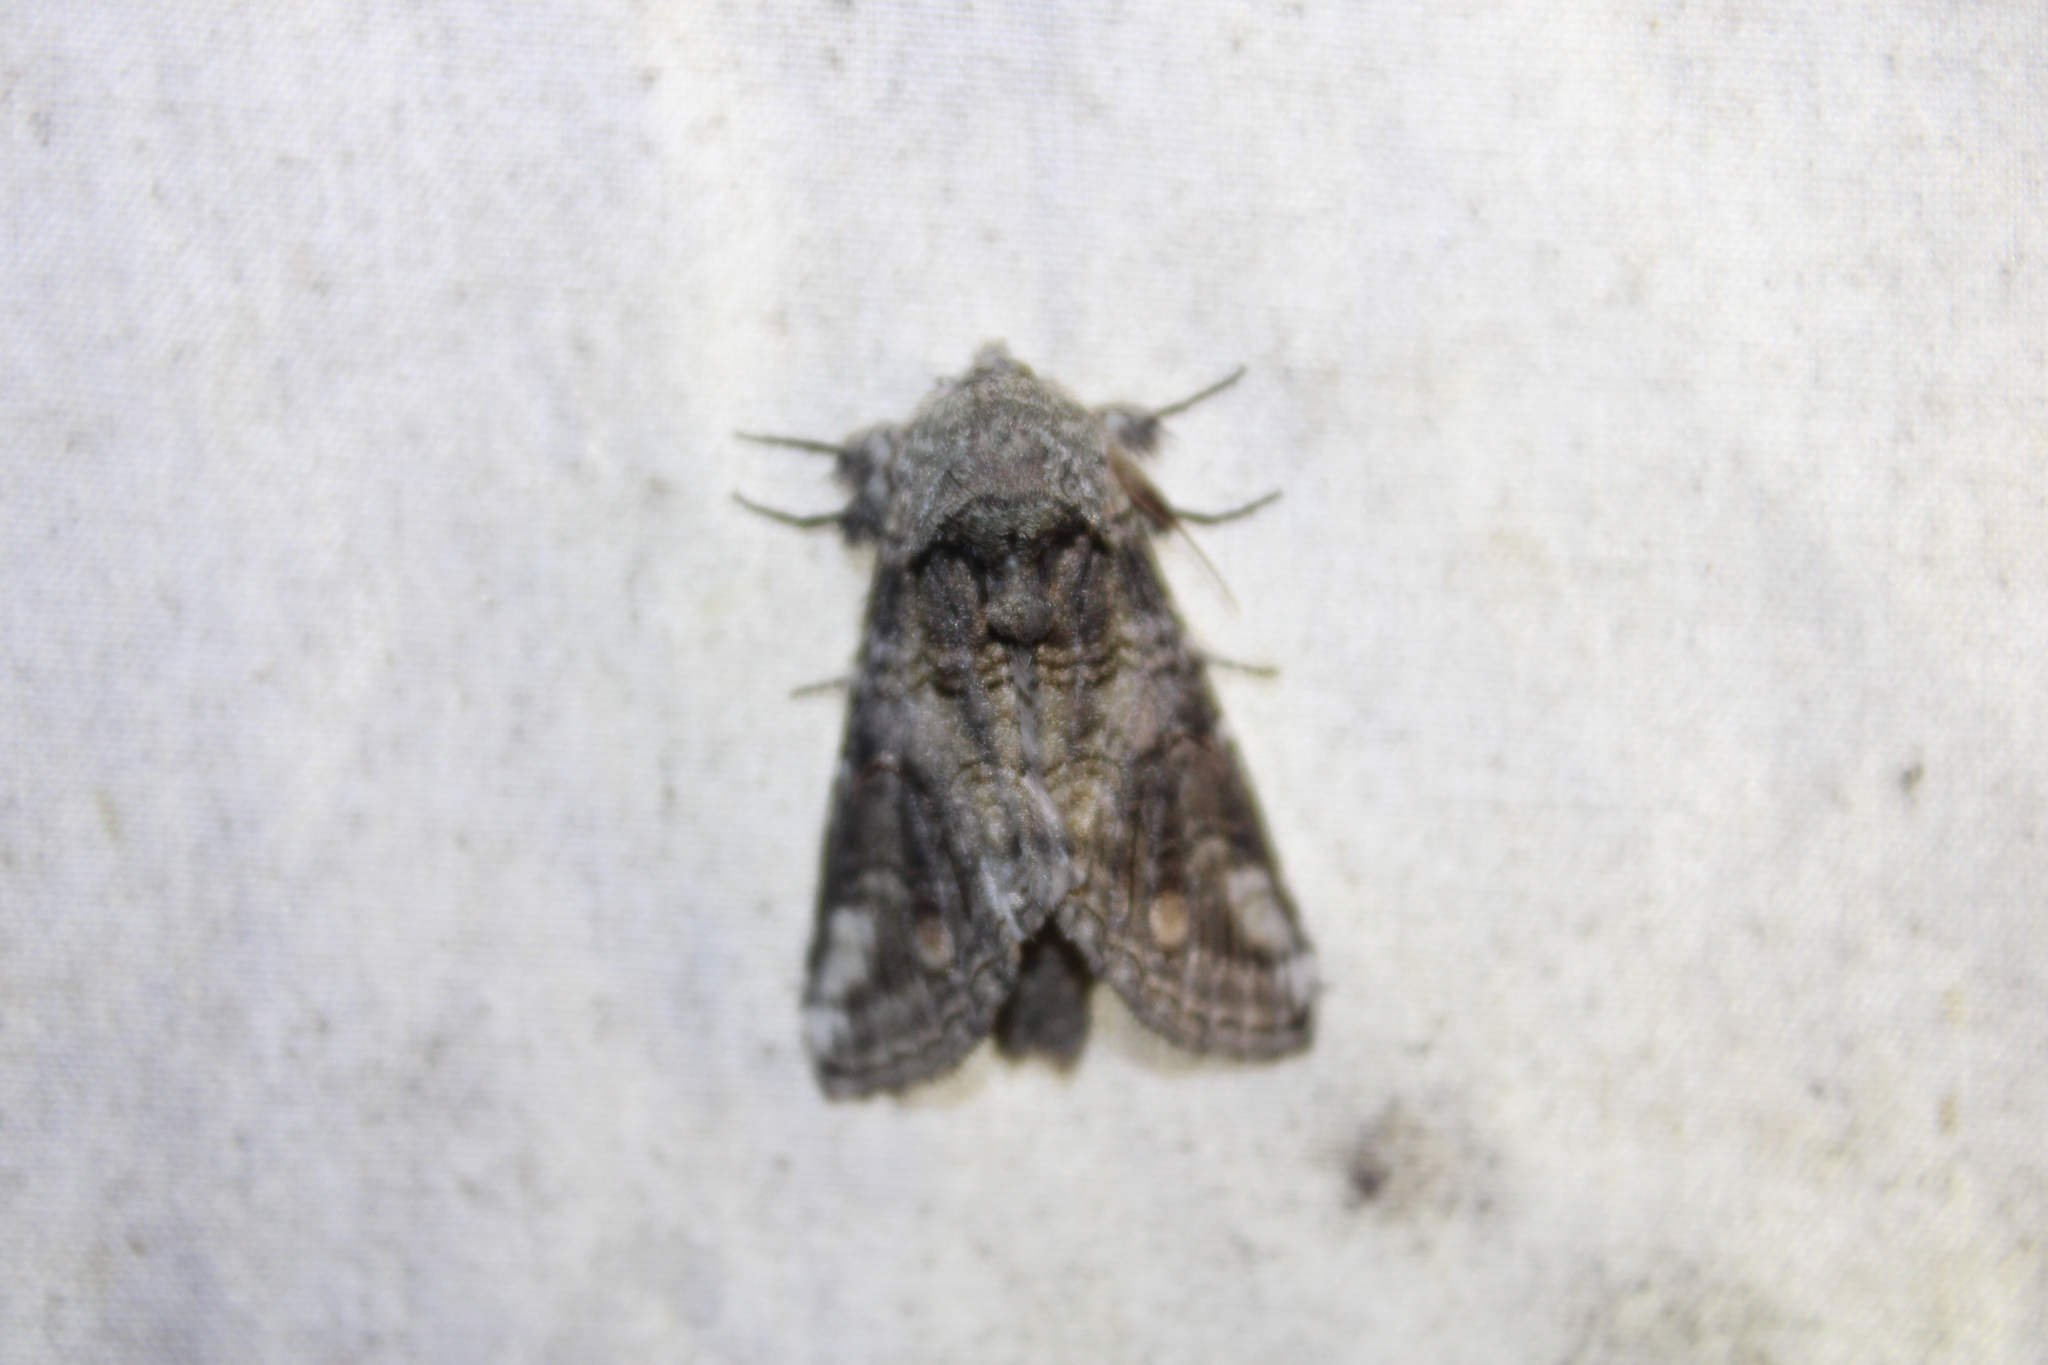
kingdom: Animalia
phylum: Arthropoda
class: Insecta
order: Lepidoptera
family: Notodontidae
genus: Heterocampa
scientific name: Heterocampa obliqua
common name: Oblique heterocampa
